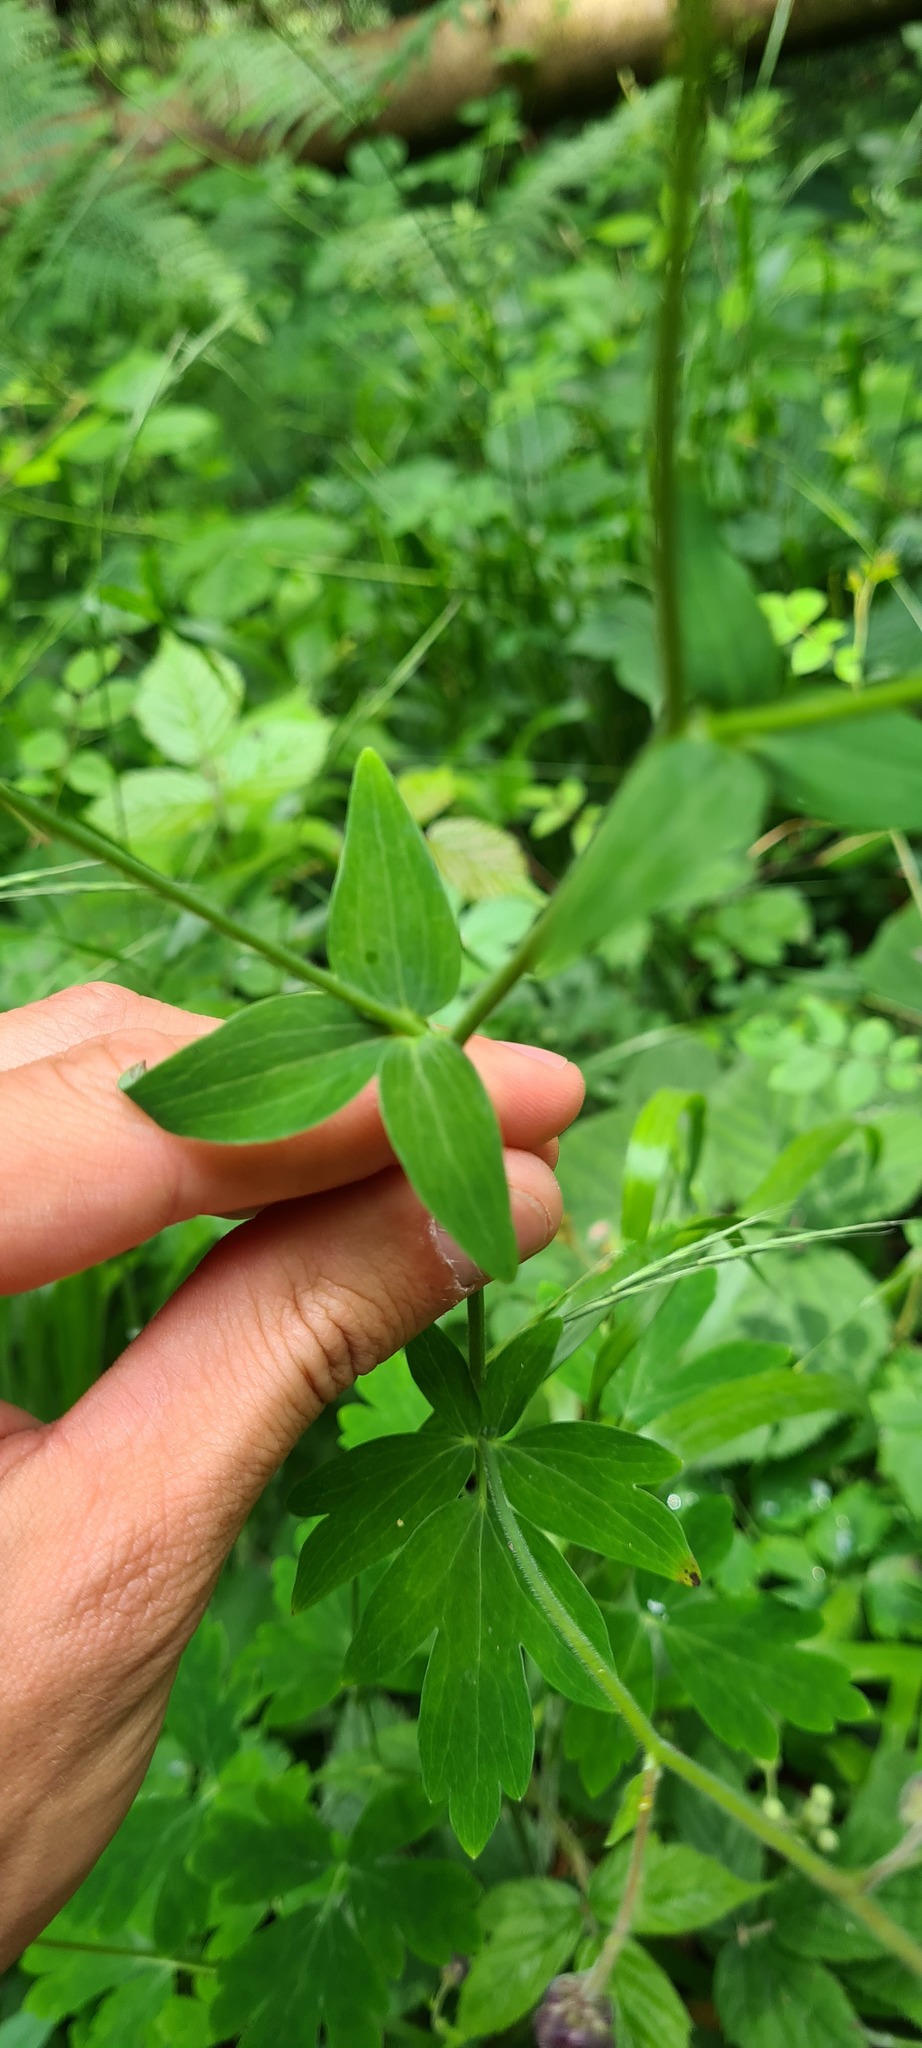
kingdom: Plantae
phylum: Tracheophyta
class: Magnoliopsida
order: Ranunculales
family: Ranunculaceae
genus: Aquilegia
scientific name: Aquilegia vulgaris
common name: Columbine
